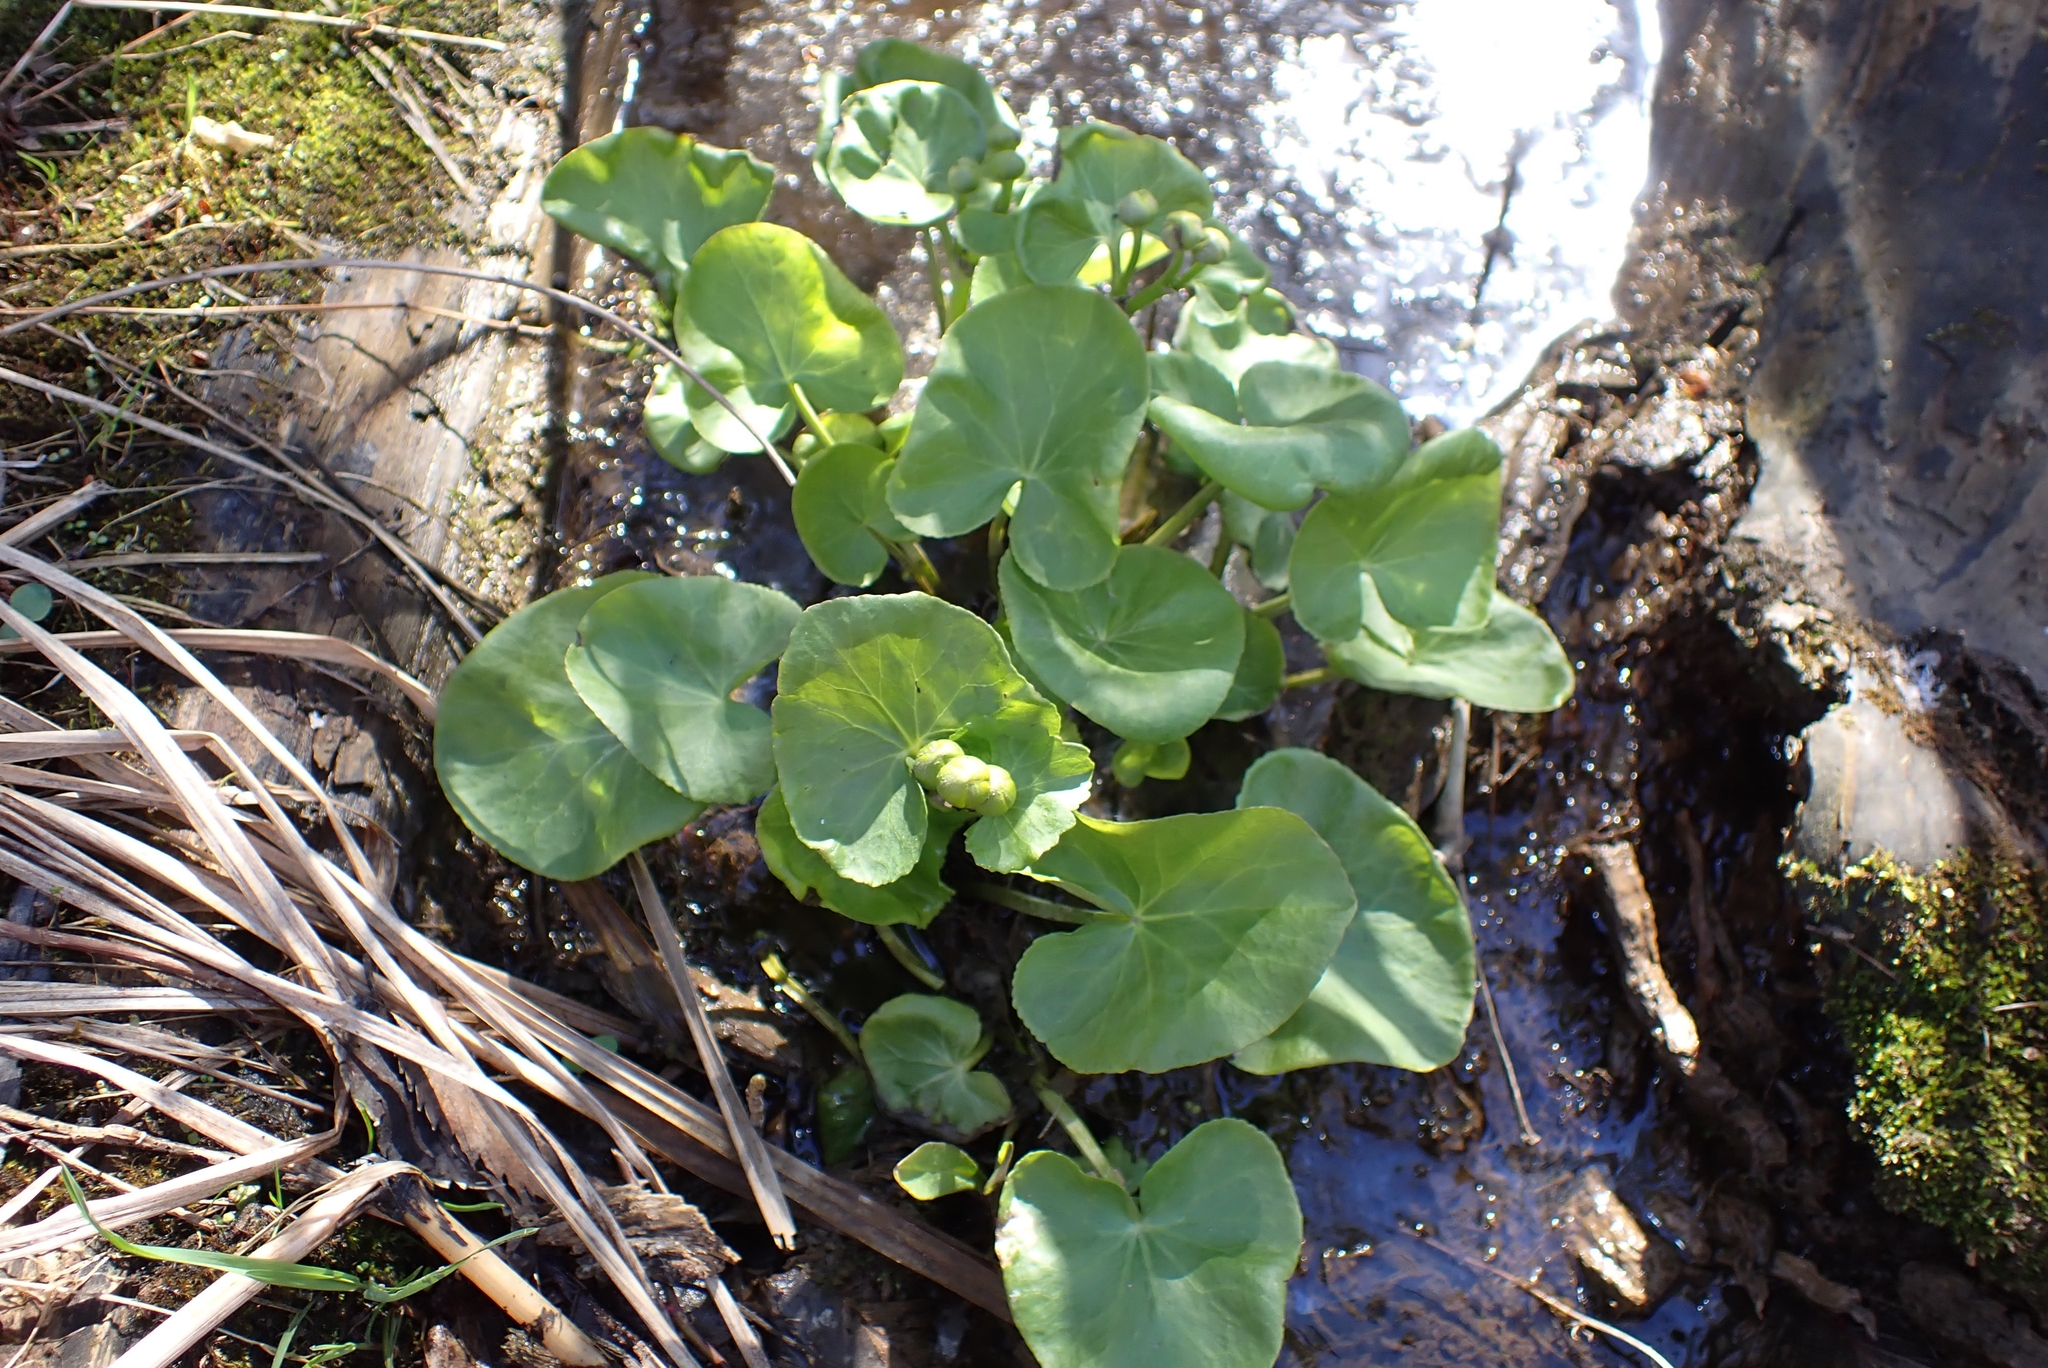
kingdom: Plantae
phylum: Tracheophyta
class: Magnoliopsida
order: Ranunculales
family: Ranunculaceae
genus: Caltha
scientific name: Caltha palustris
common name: Marsh marigold
